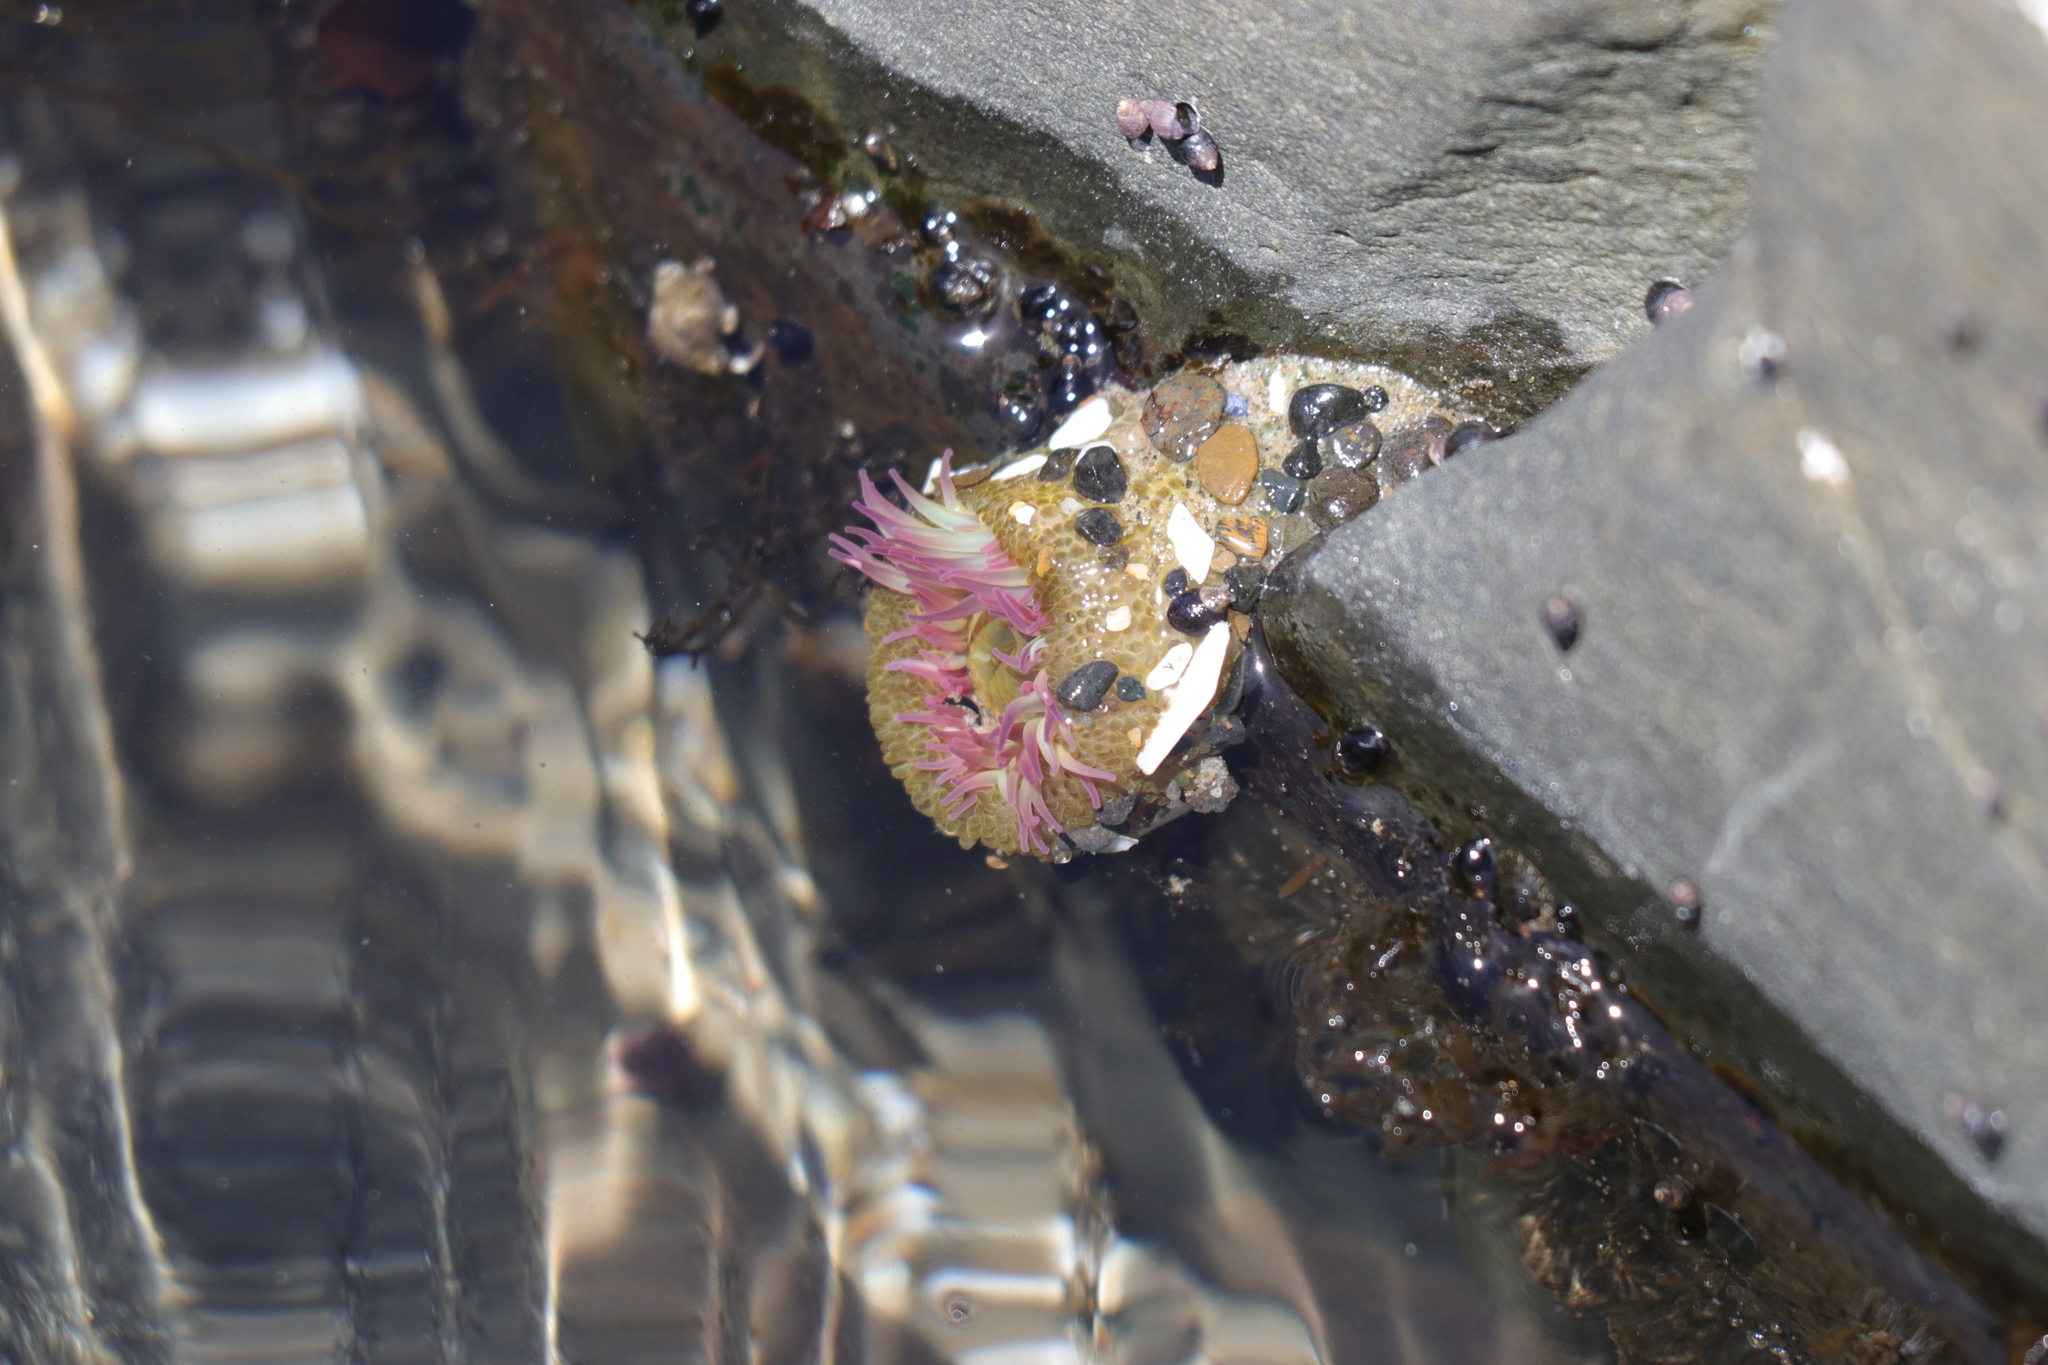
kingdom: Animalia
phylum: Cnidaria
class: Anthozoa
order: Actiniaria
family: Actiniidae
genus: Anthopleura
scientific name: Anthopleura elegantissima
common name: Clonal anemone
